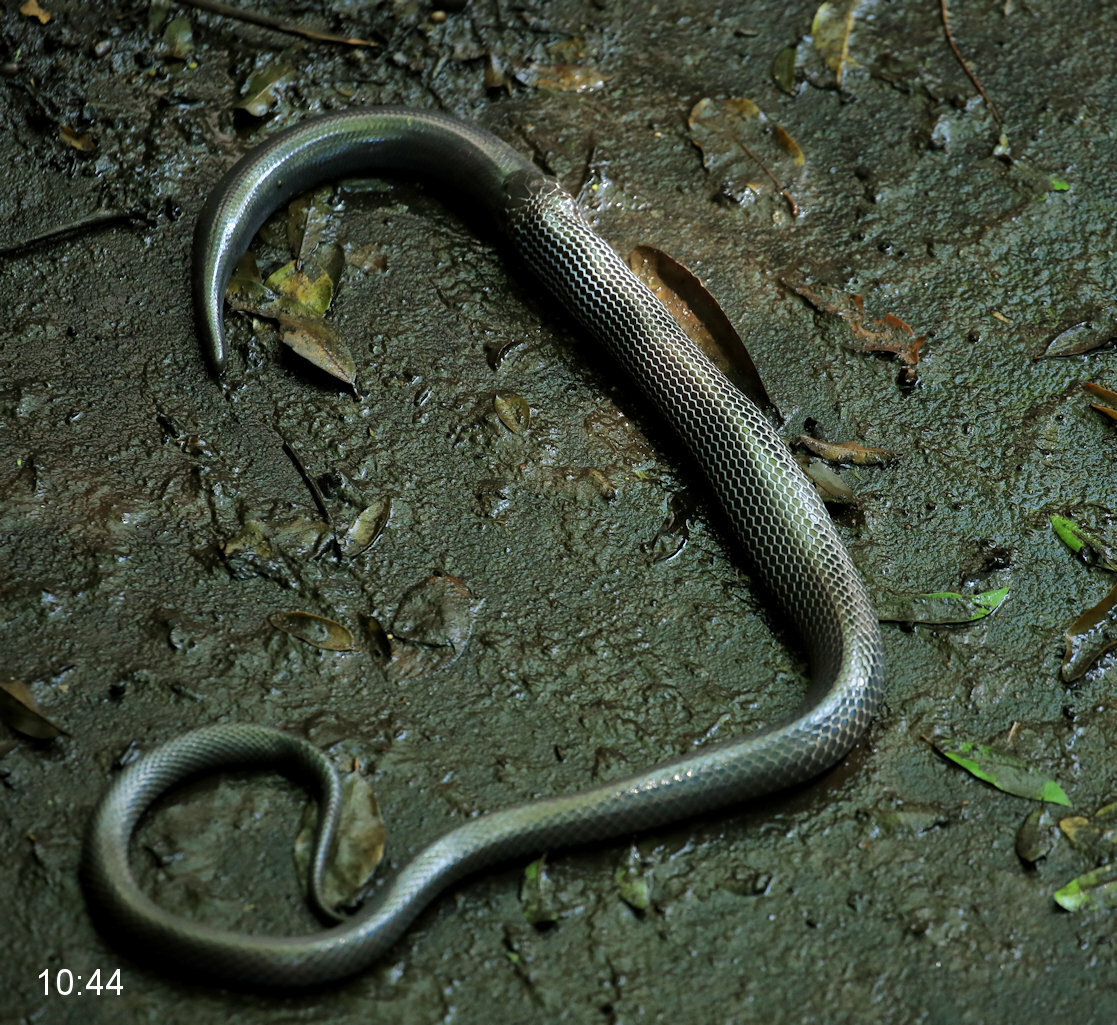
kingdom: Animalia
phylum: Chordata
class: Squamata
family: Atractaspididae
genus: Amblyodipsas
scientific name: Amblyodipsas concolor
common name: Kwazulu-natal purple-glossed snake
